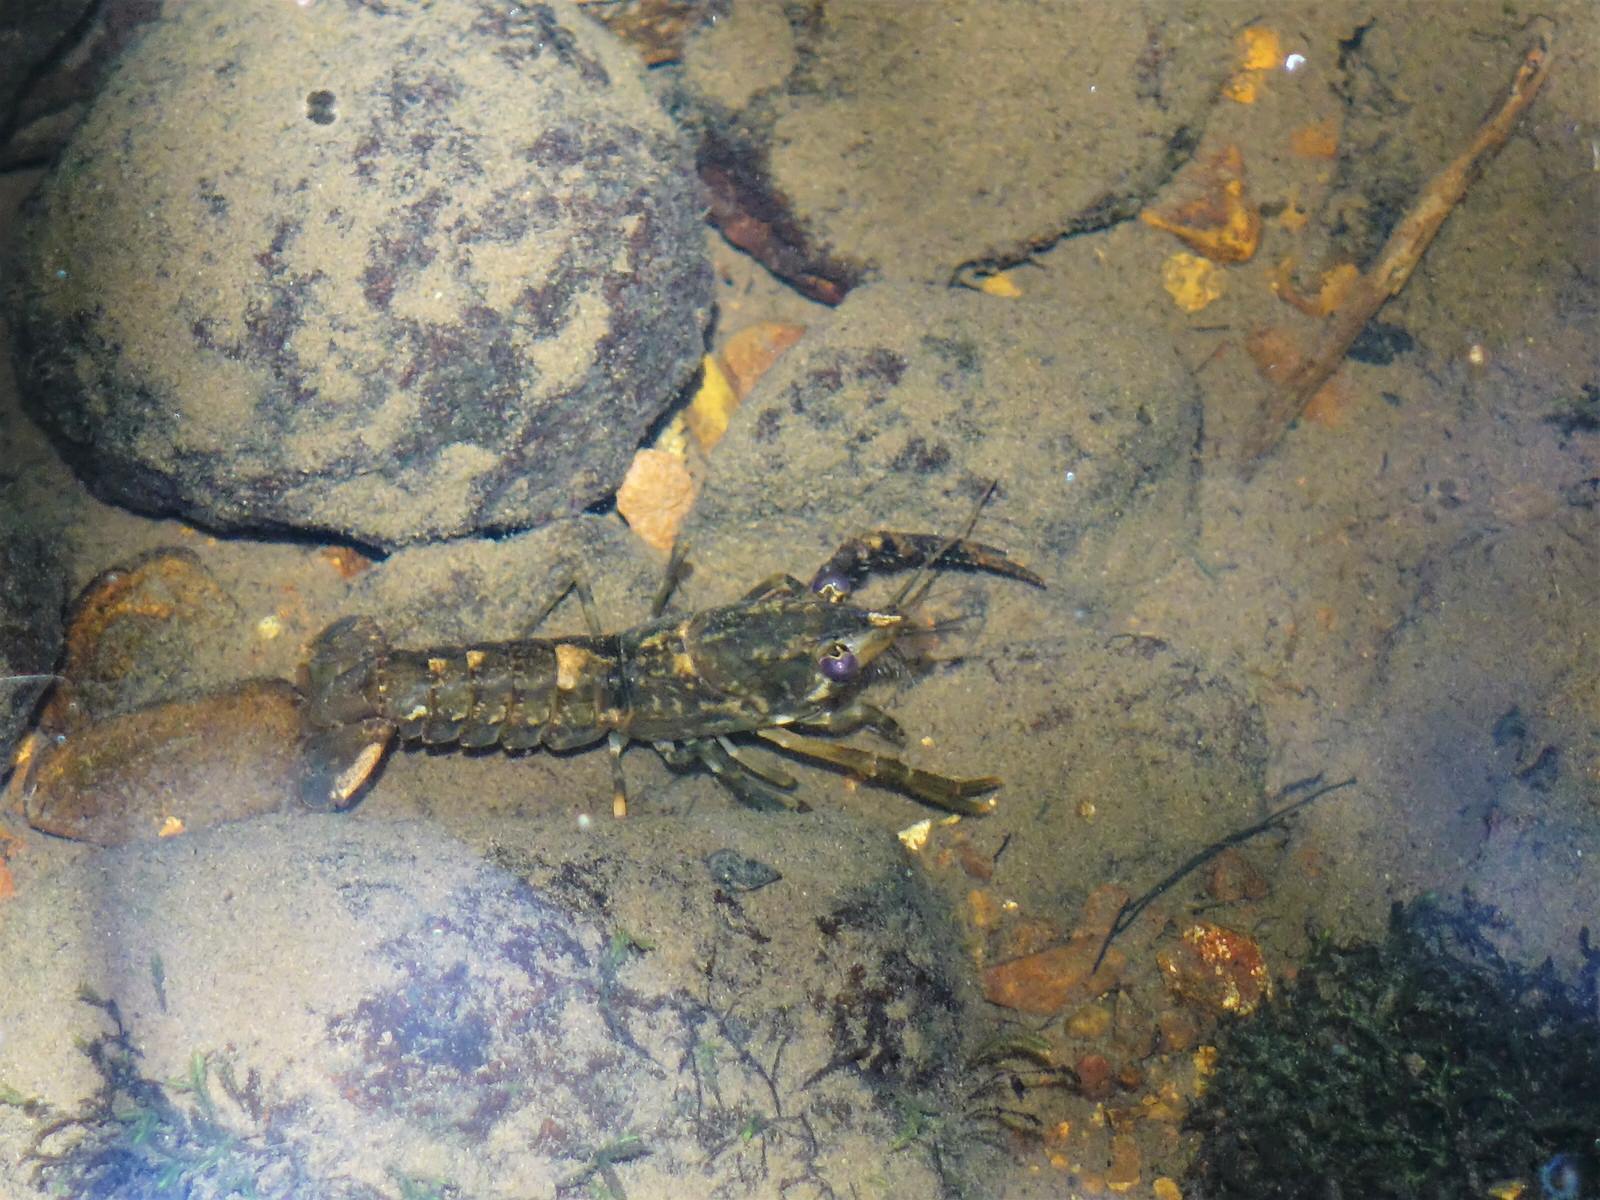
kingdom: Animalia
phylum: Arthropoda
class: Malacostraca
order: Decapoda
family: Parastacidae
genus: Paranephrops
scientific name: Paranephrops planifrons
